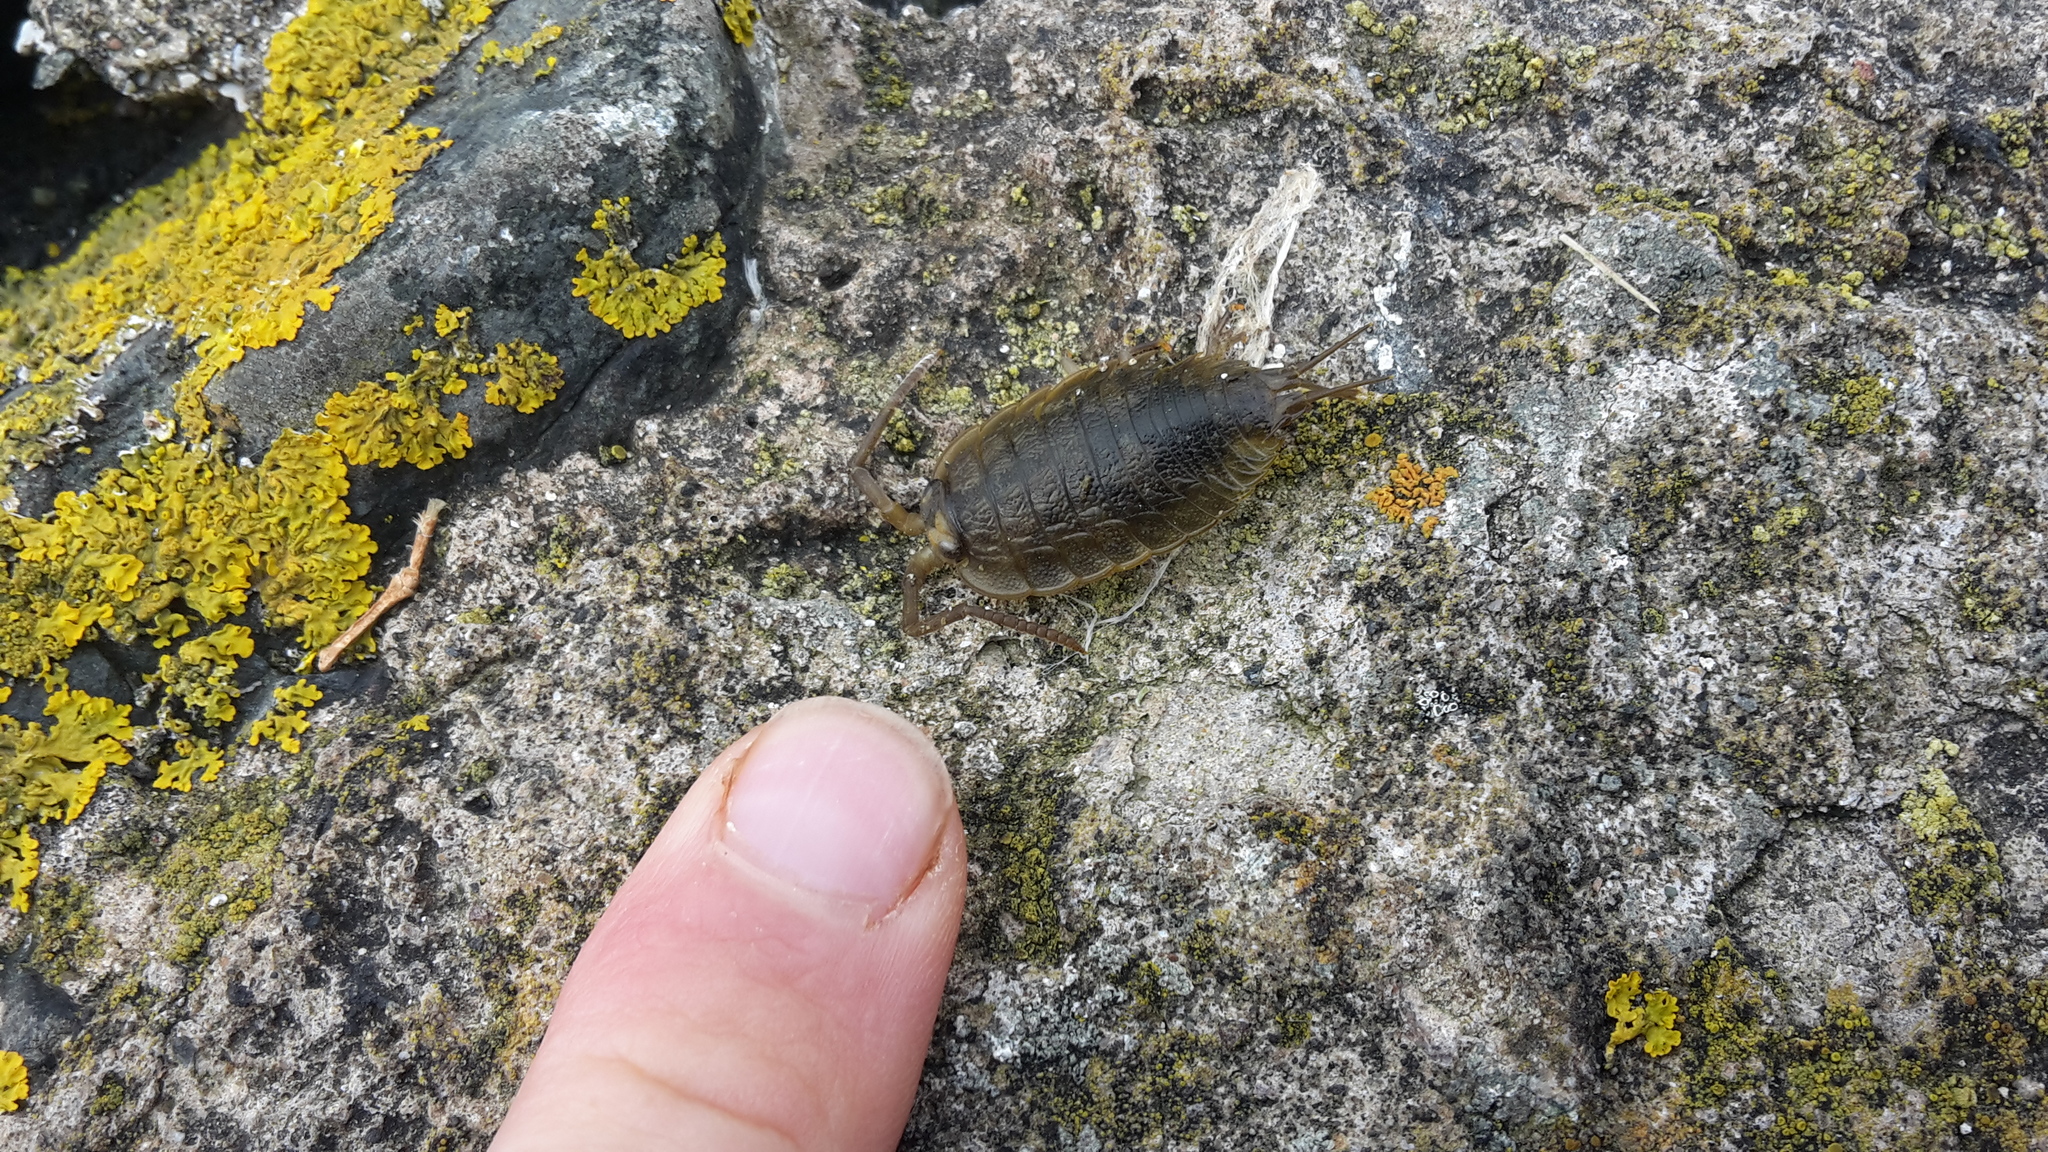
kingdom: Animalia
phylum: Arthropoda
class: Malacostraca
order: Isopoda
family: Ligiidae
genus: Ligia
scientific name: Ligia oceanica
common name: Sea slater
